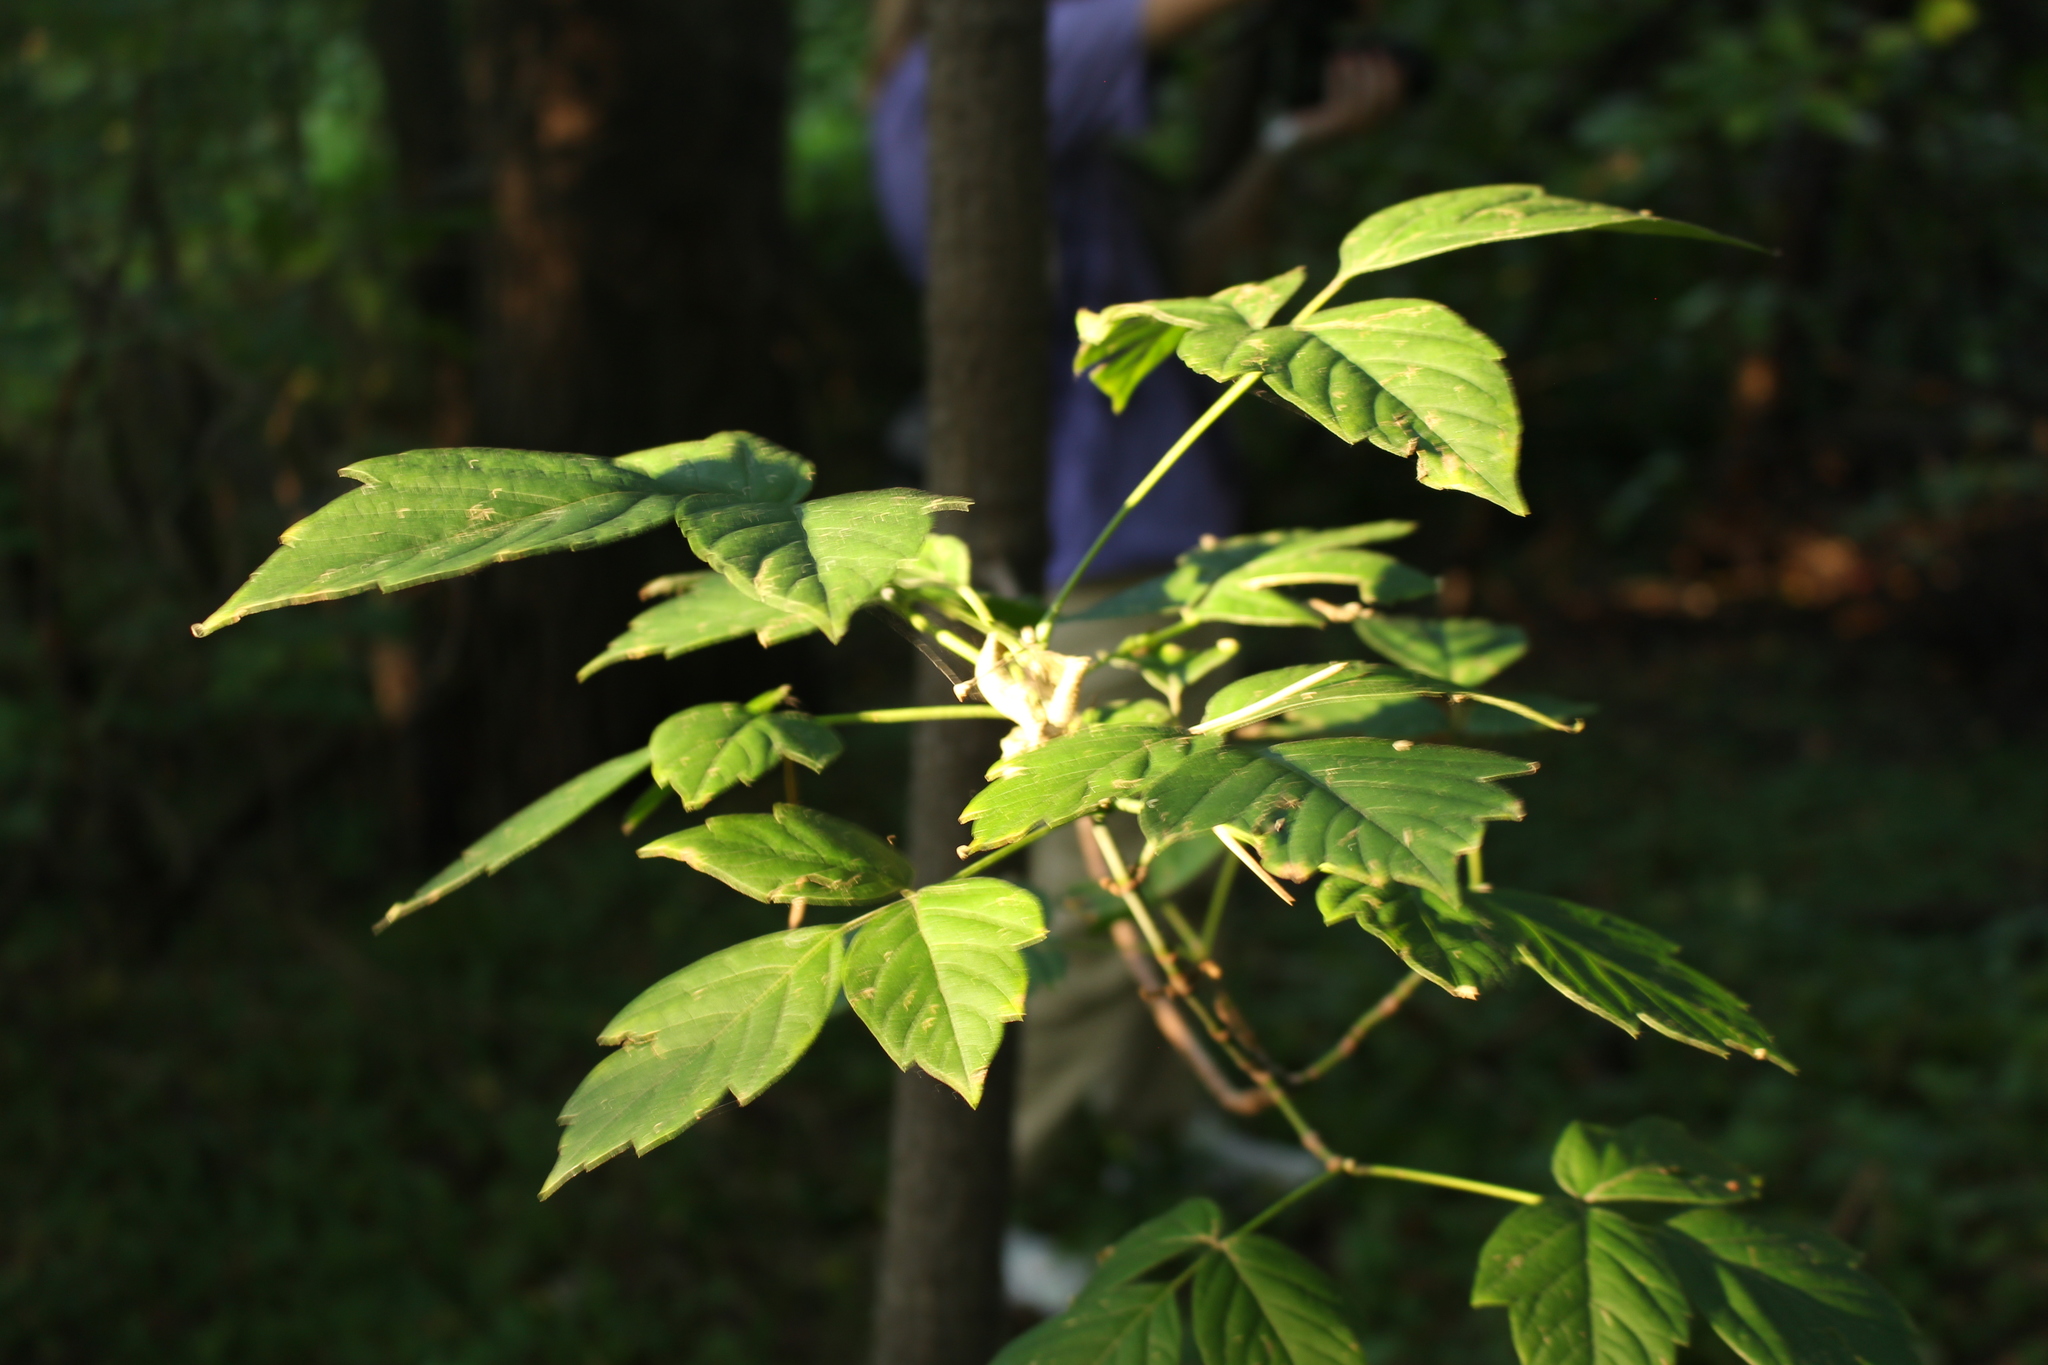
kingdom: Plantae
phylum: Tracheophyta
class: Magnoliopsida
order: Sapindales
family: Sapindaceae
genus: Acer
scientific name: Acer negundo
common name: Ashleaf maple
